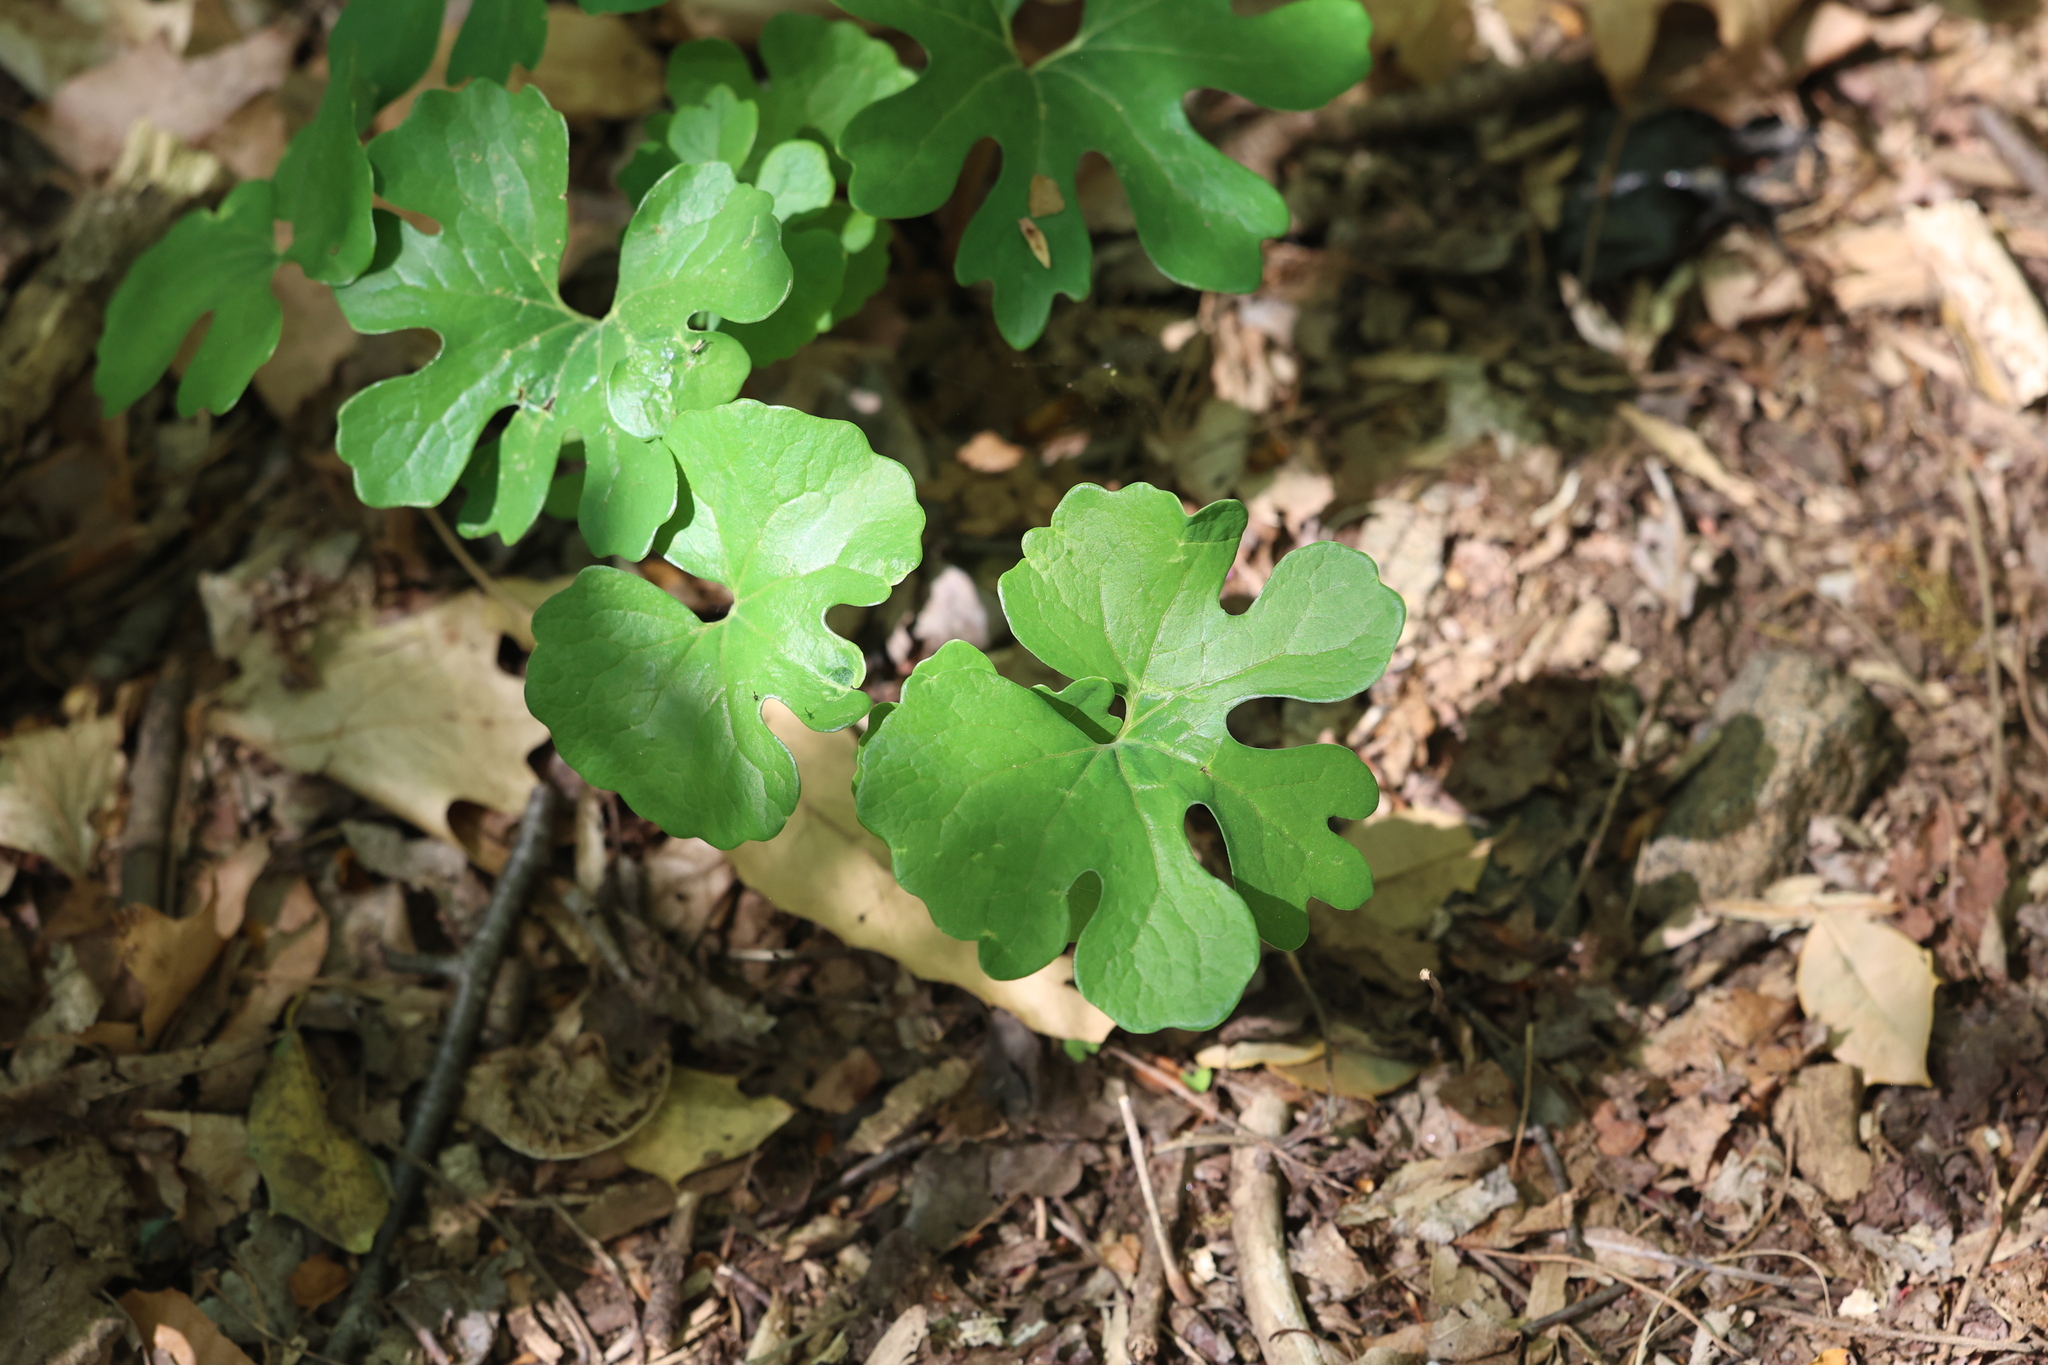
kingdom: Plantae
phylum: Tracheophyta
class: Magnoliopsida
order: Ranunculales
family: Papaveraceae
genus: Sanguinaria
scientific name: Sanguinaria canadensis
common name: Bloodroot
